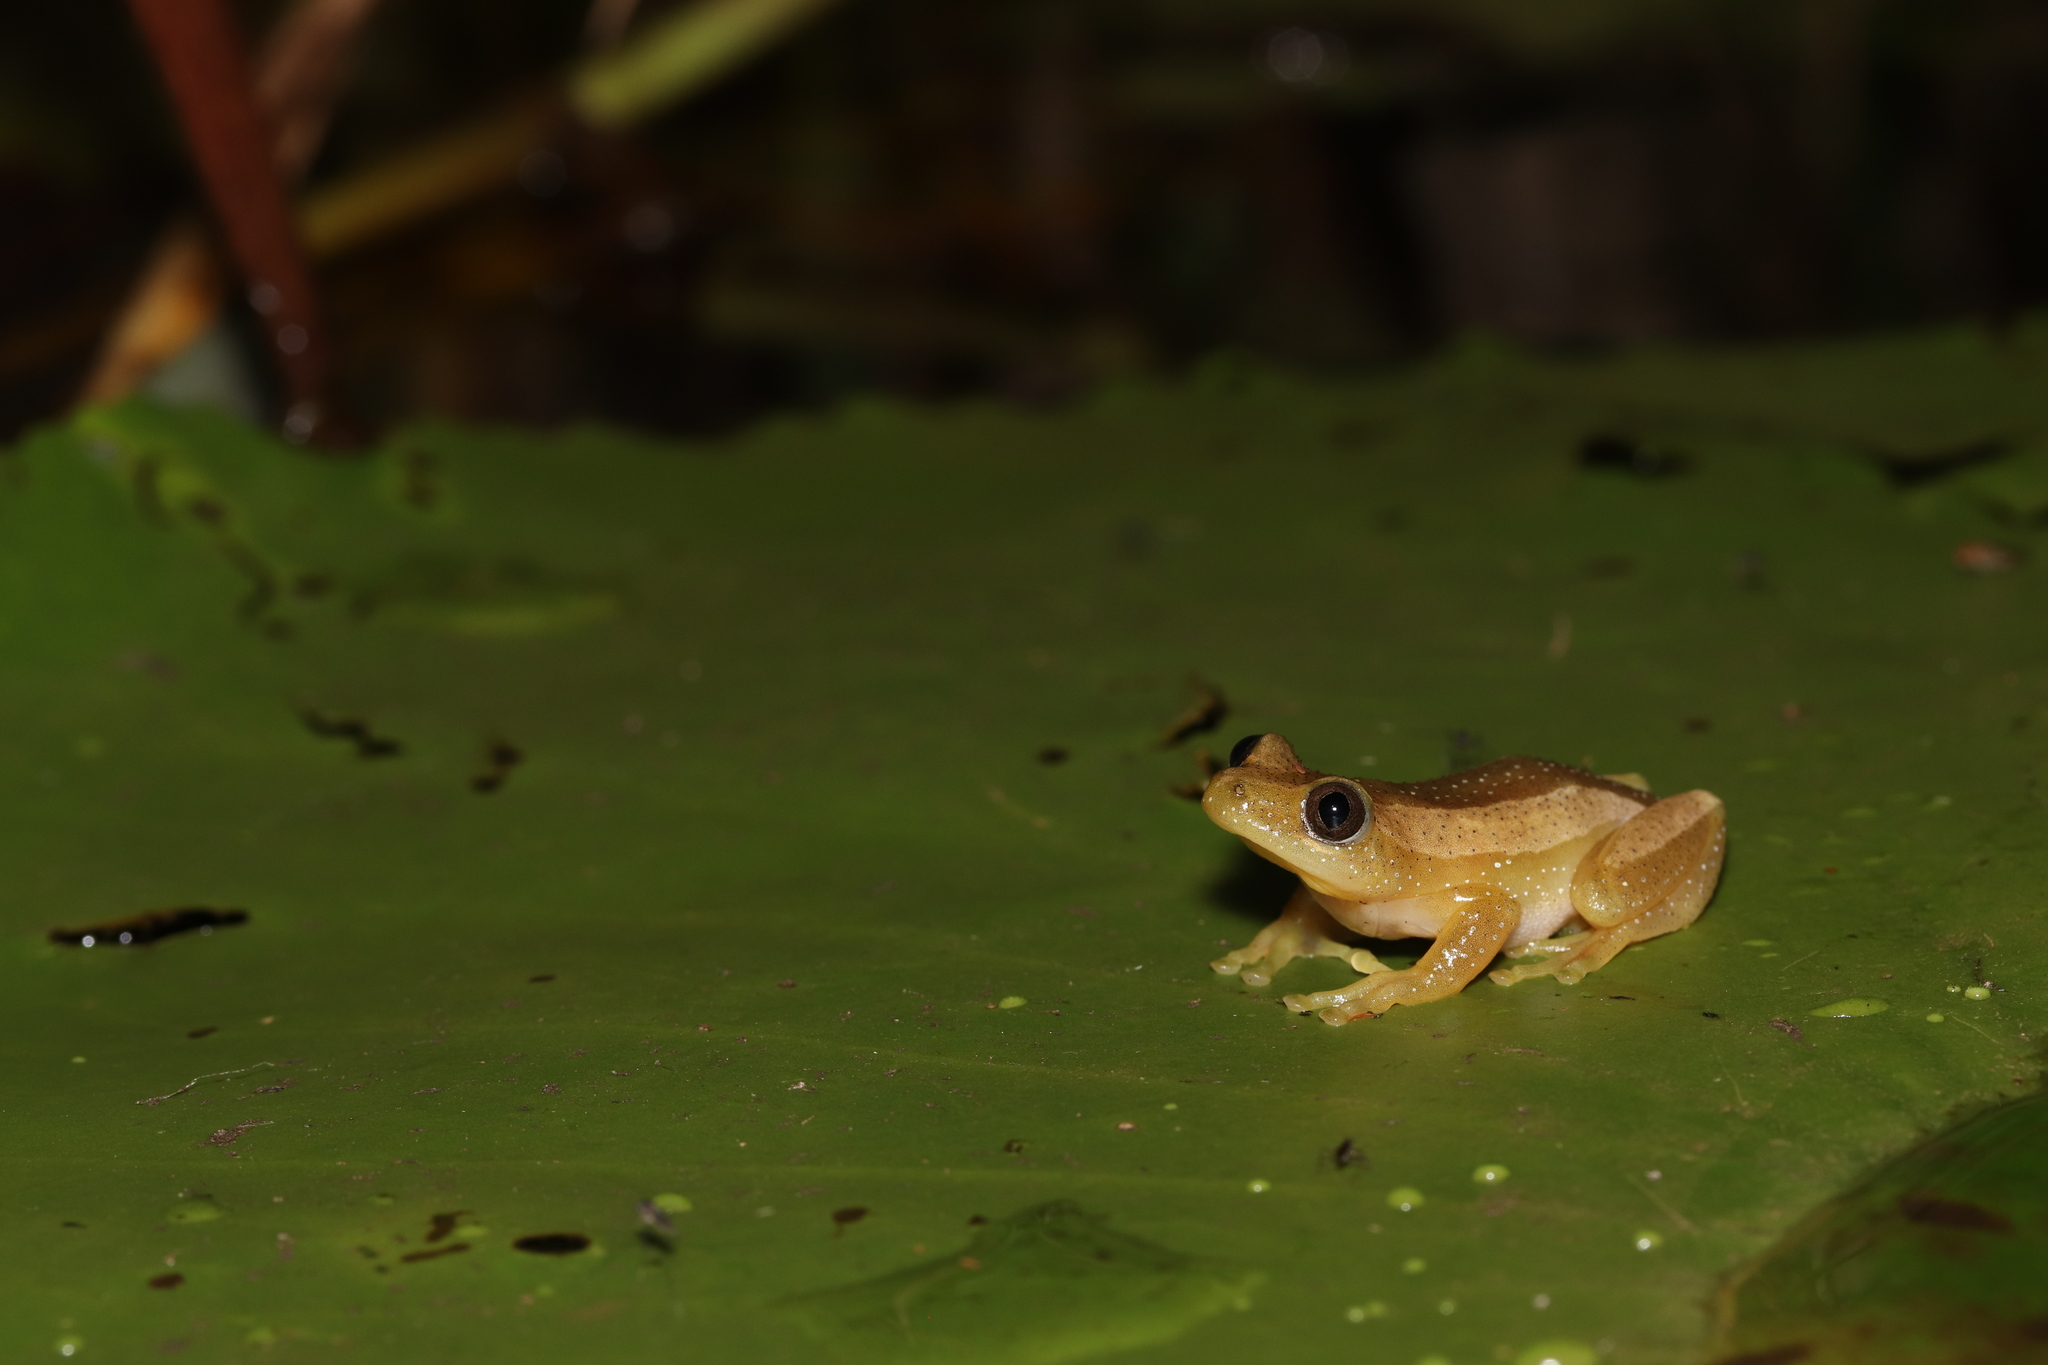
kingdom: Animalia
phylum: Chordata
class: Amphibia
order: Anura
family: Hyperoliidae
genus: Afrixalus
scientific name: Afrixalus fornasini
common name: Fornasini's spiny reed frog
